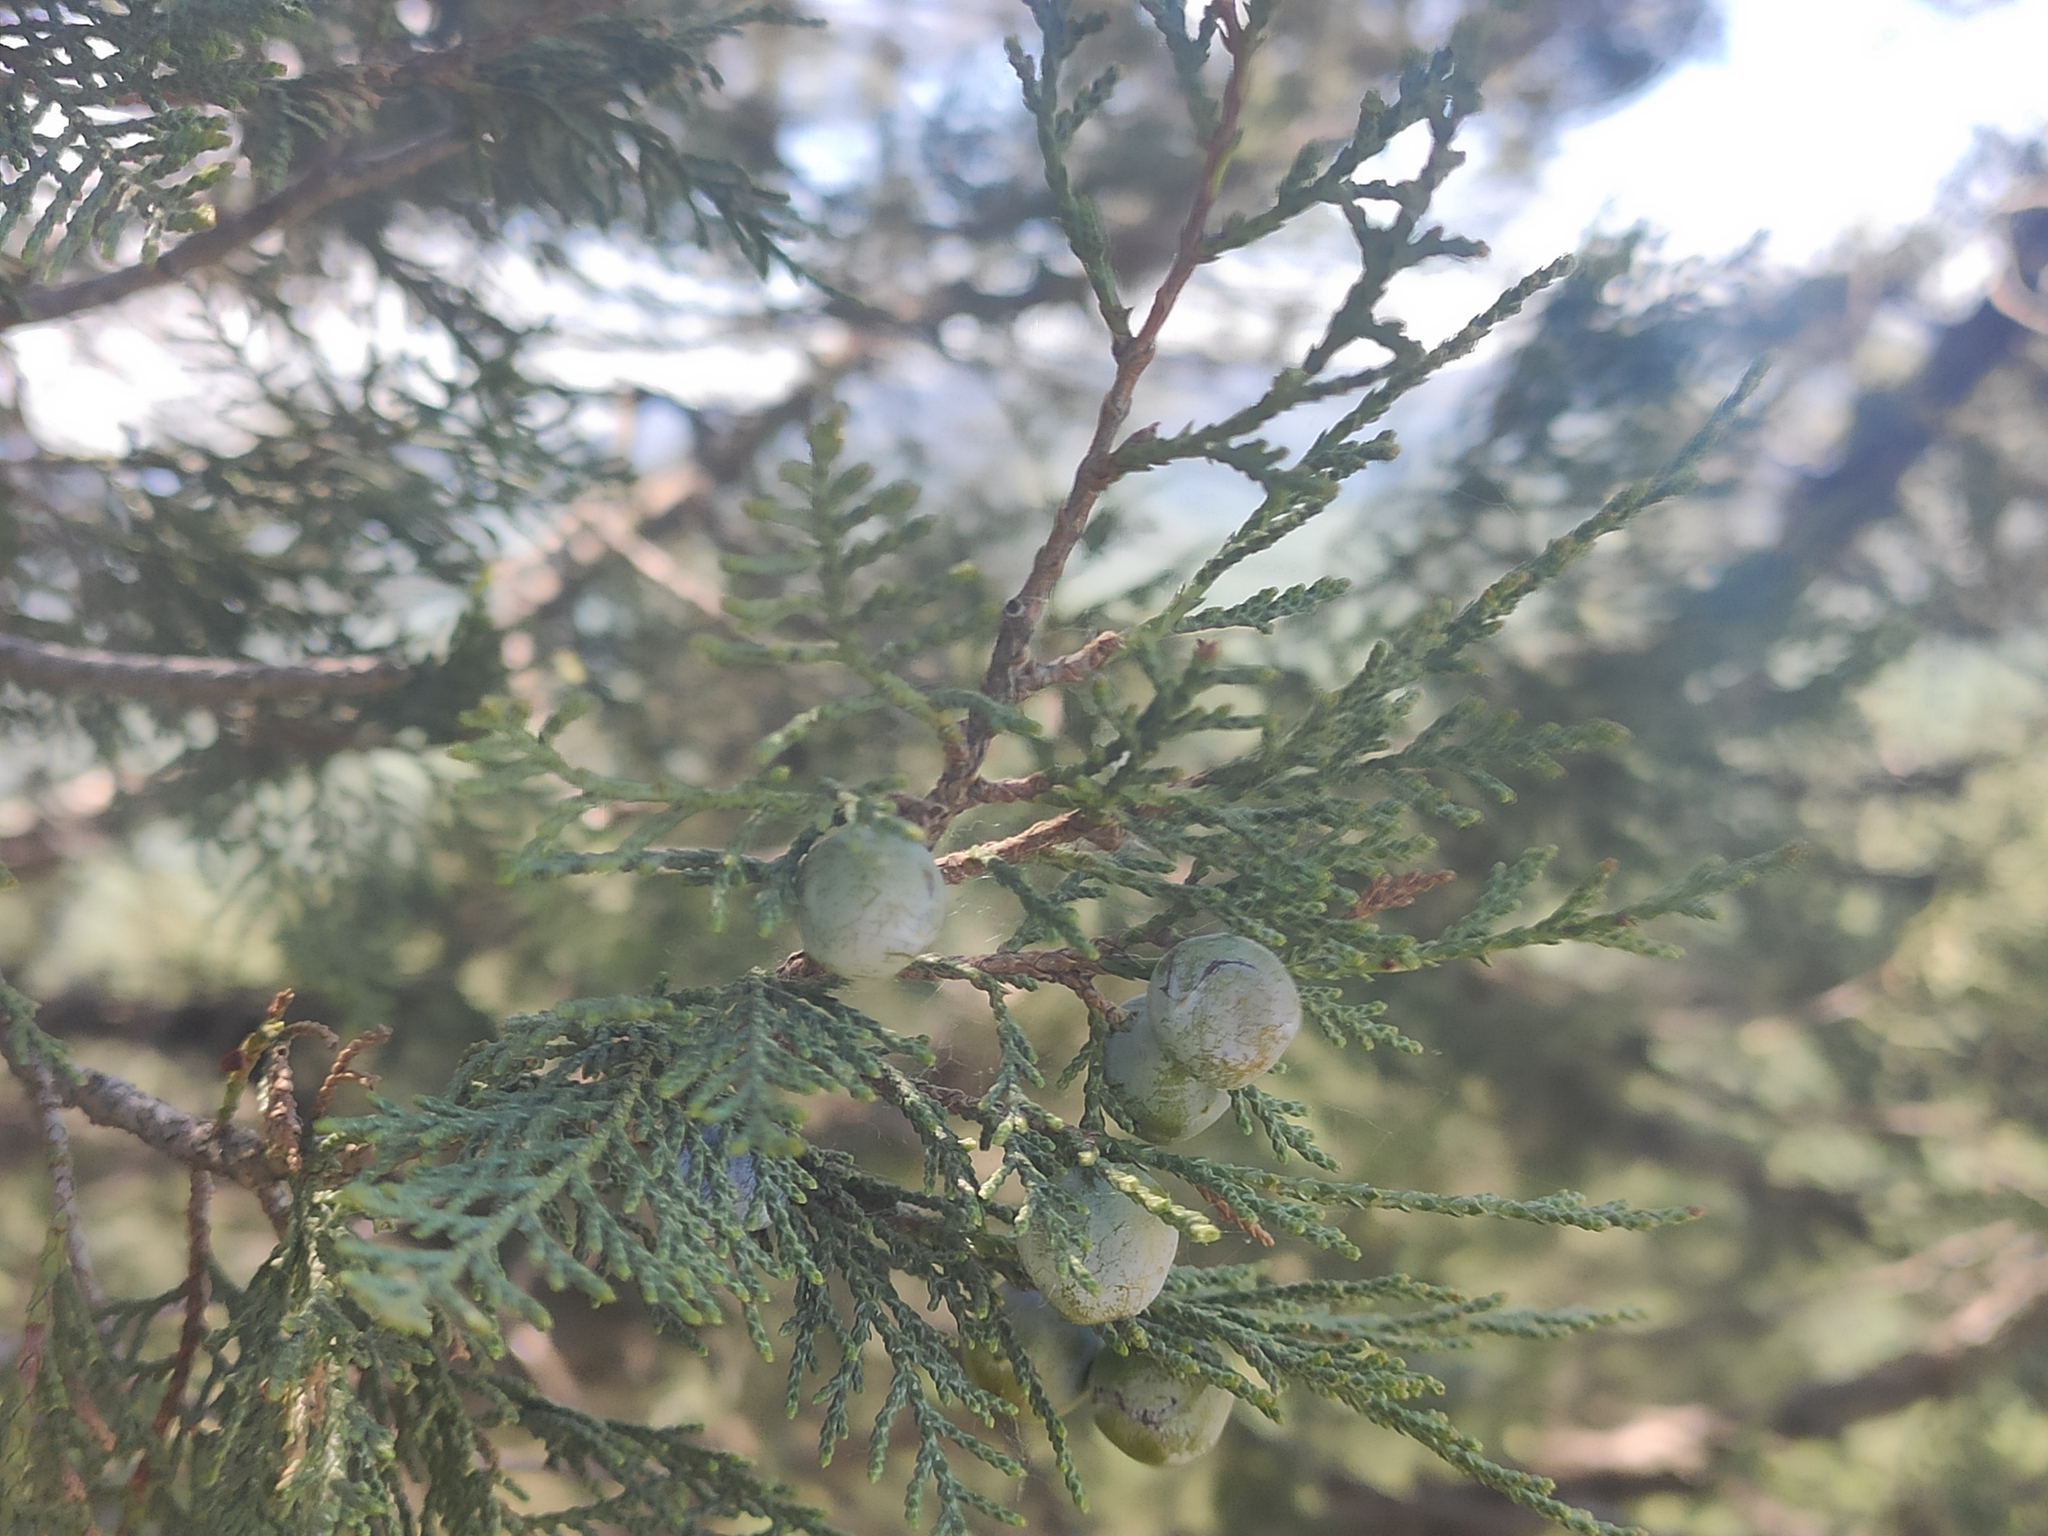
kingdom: Plantae
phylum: Tracheophyta
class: Pinopsida
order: Pinales
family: Cupressaceae
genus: Juniperus
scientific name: Juniperus excelsa
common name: Crimean juniper
